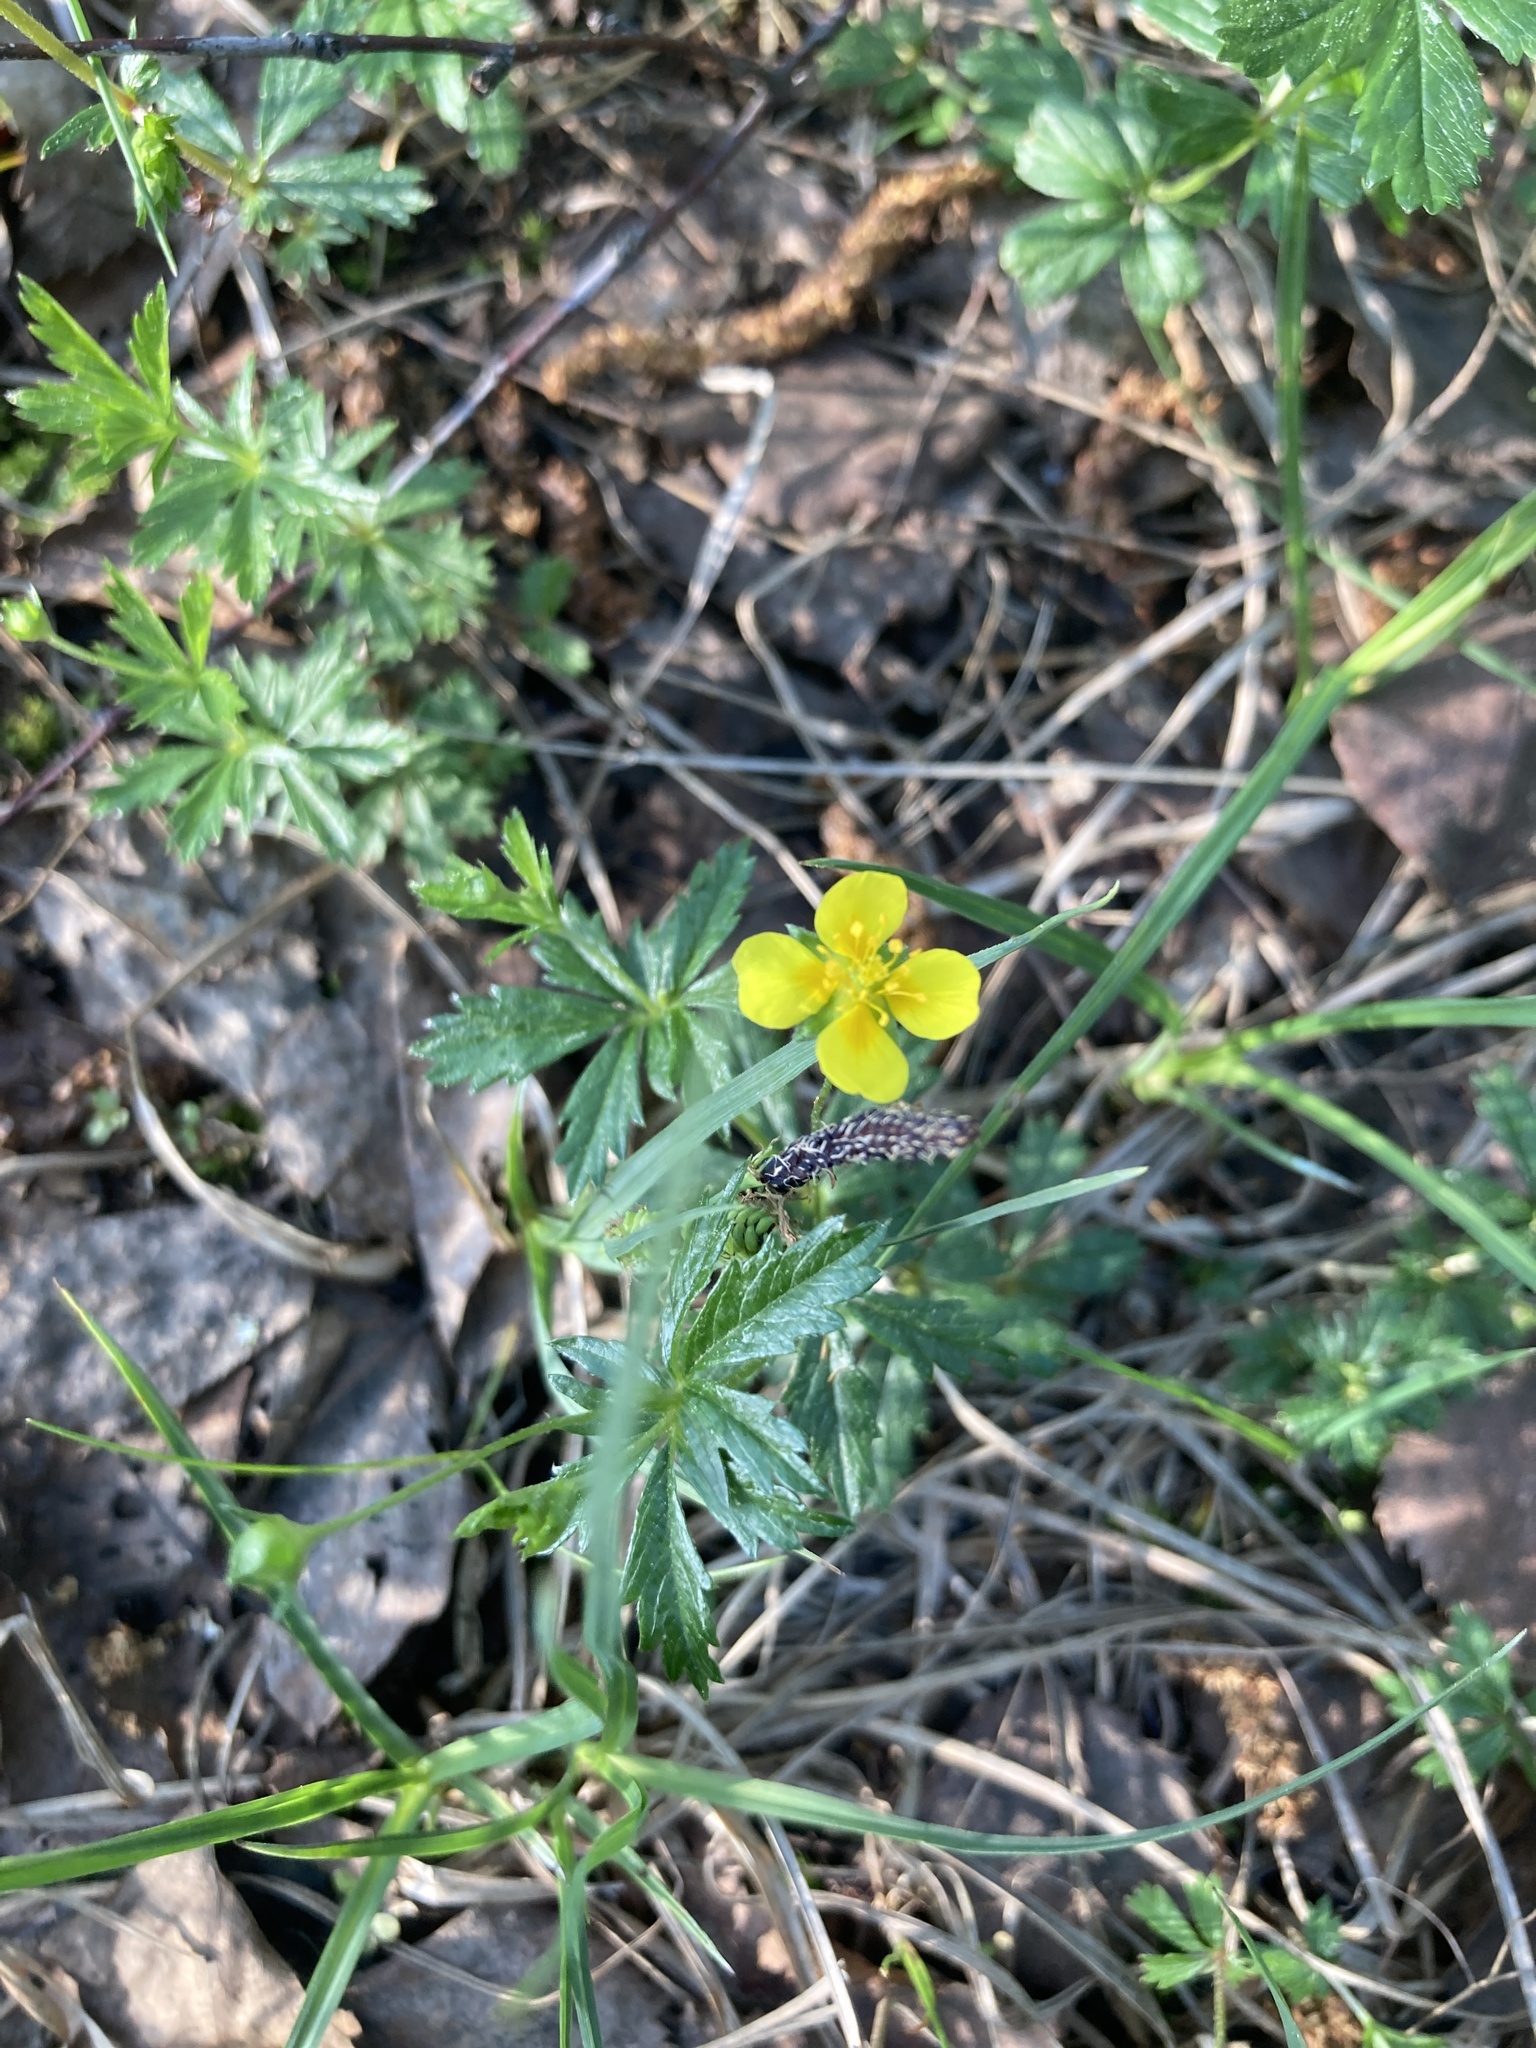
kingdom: Plantae
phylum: Tracheophyta
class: Magnoliopsida
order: Rosales
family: Rosaceae
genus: Potentilla
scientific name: Potentilla erecta
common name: Tormentil
